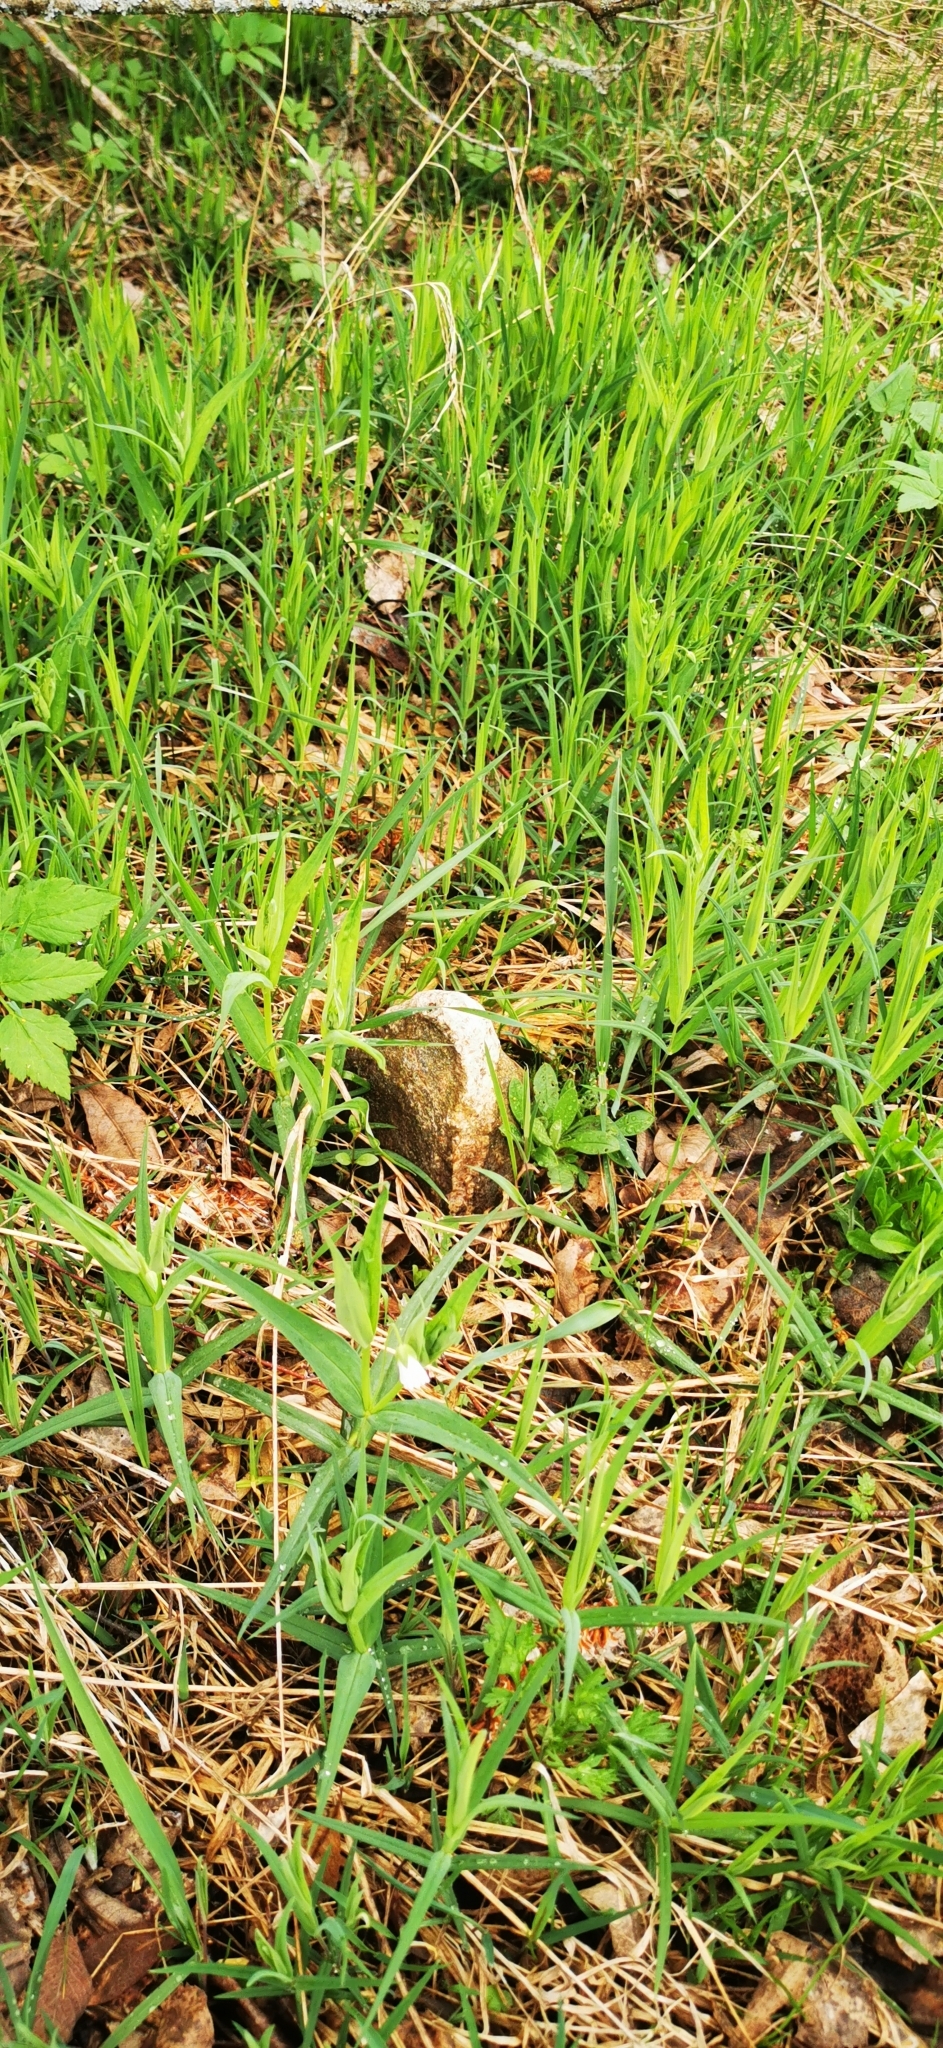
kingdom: Plantae
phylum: Tracheophyta
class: Magnoliopsida
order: Caryophyllales
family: Caryophyllaceae
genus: Rabelera
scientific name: Rabelera holostea
